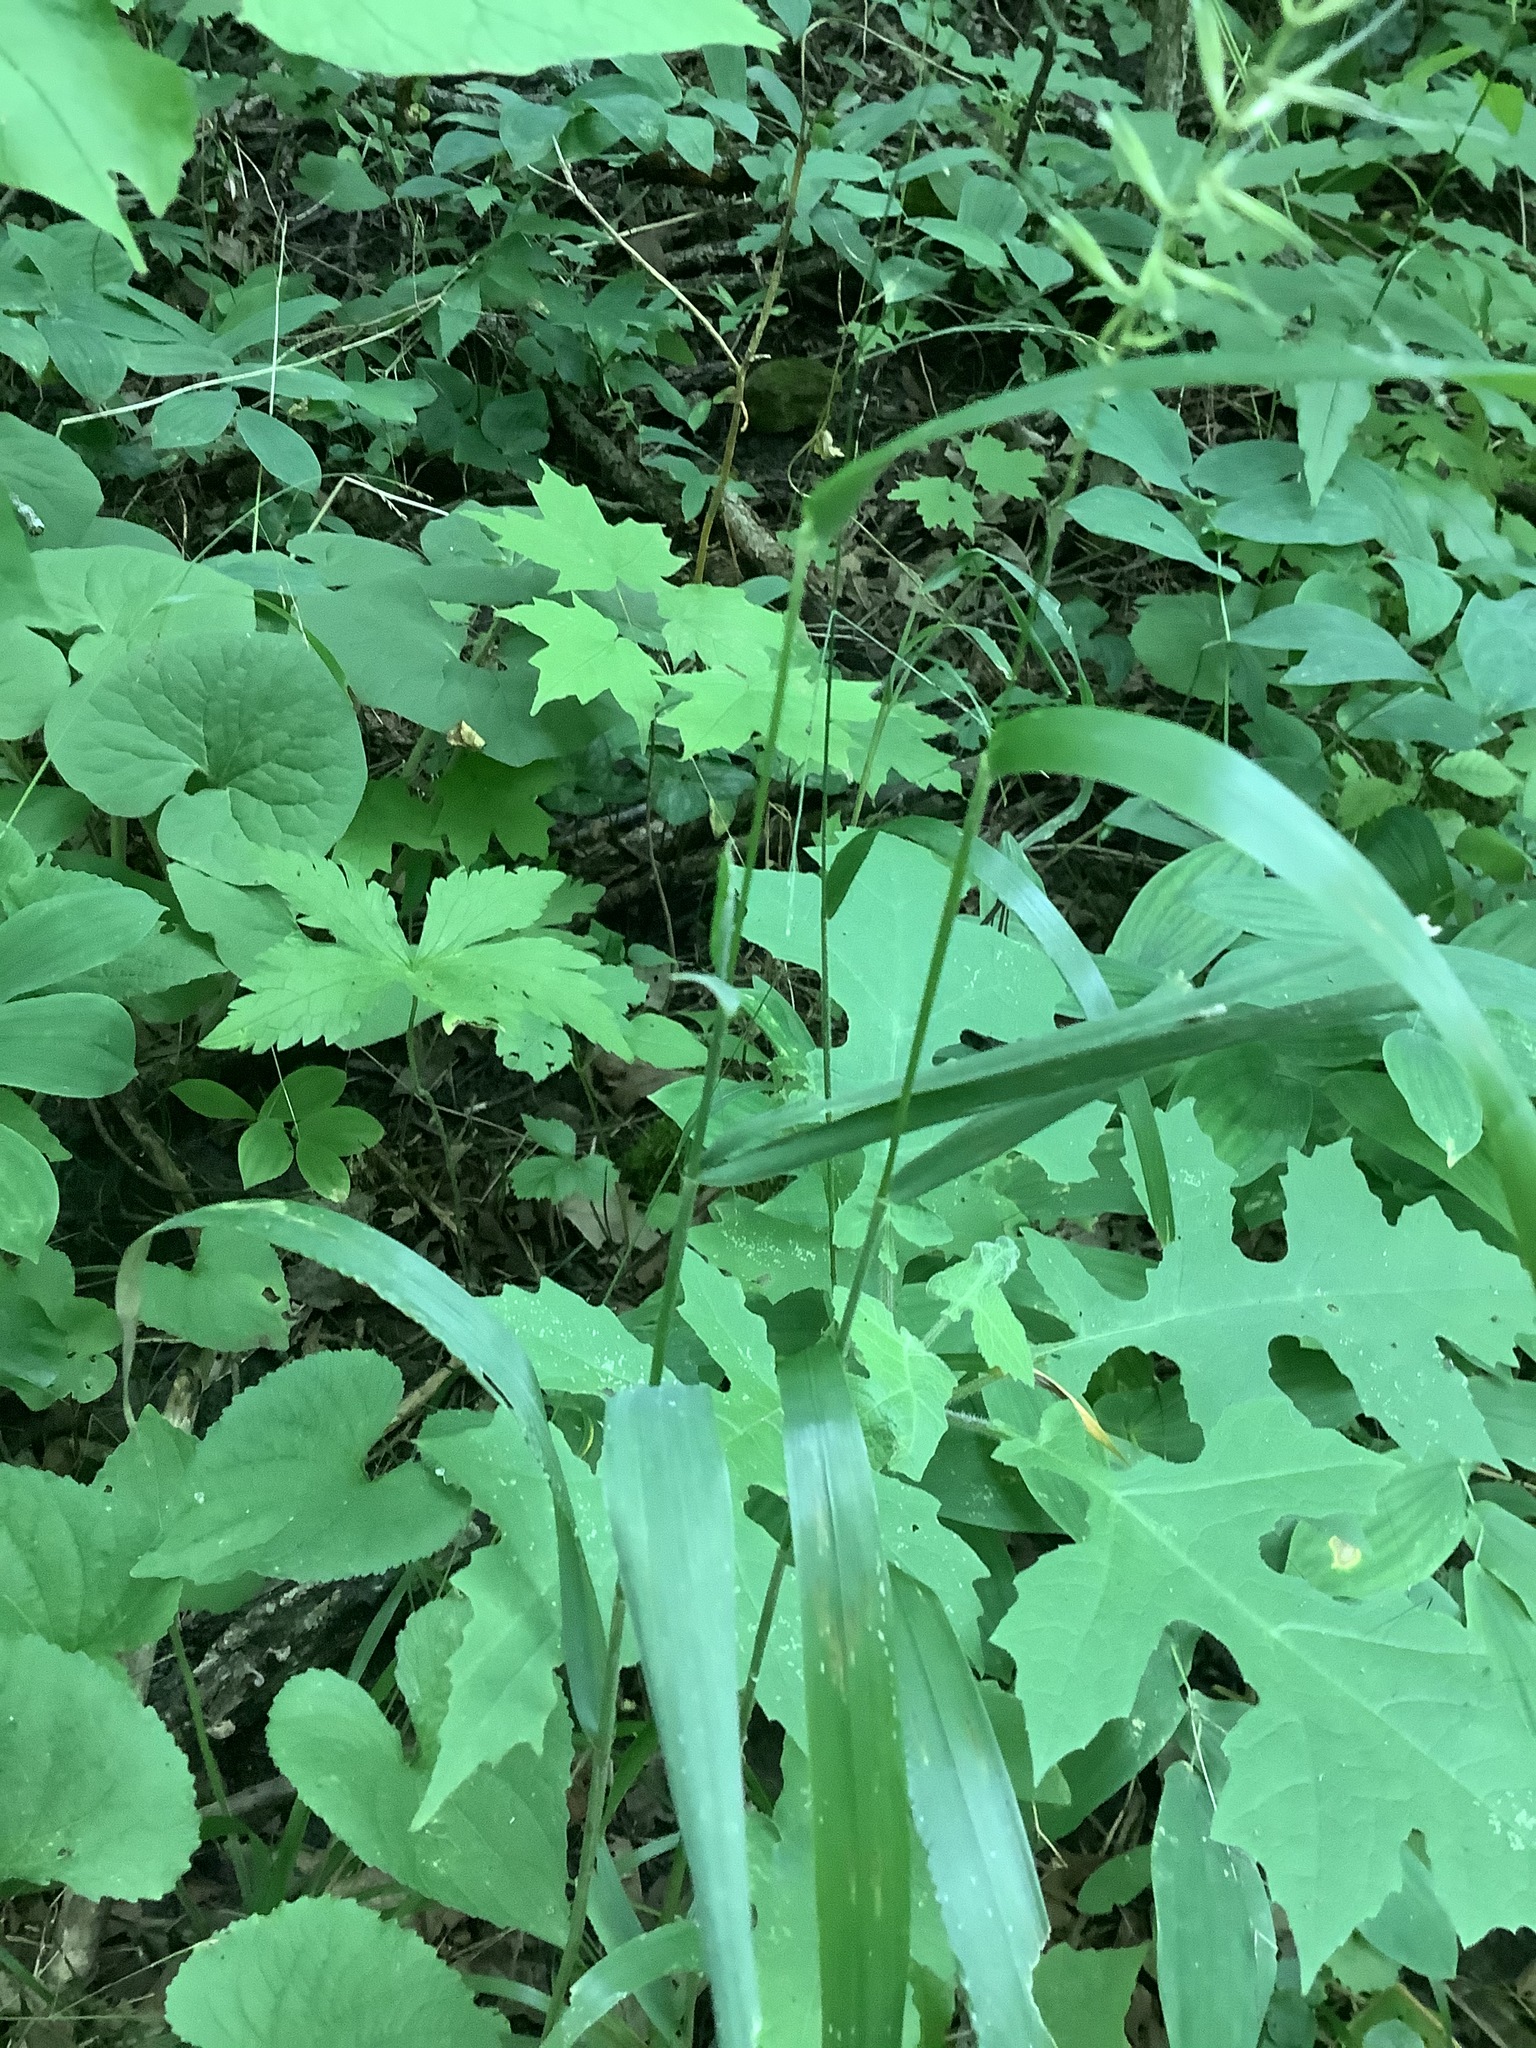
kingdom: Plantae
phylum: Tracheophyta
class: Liliopsida
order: Poales
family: Poaceae
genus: Elymus
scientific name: Elymus hystrix
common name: Bottlebrush grass
